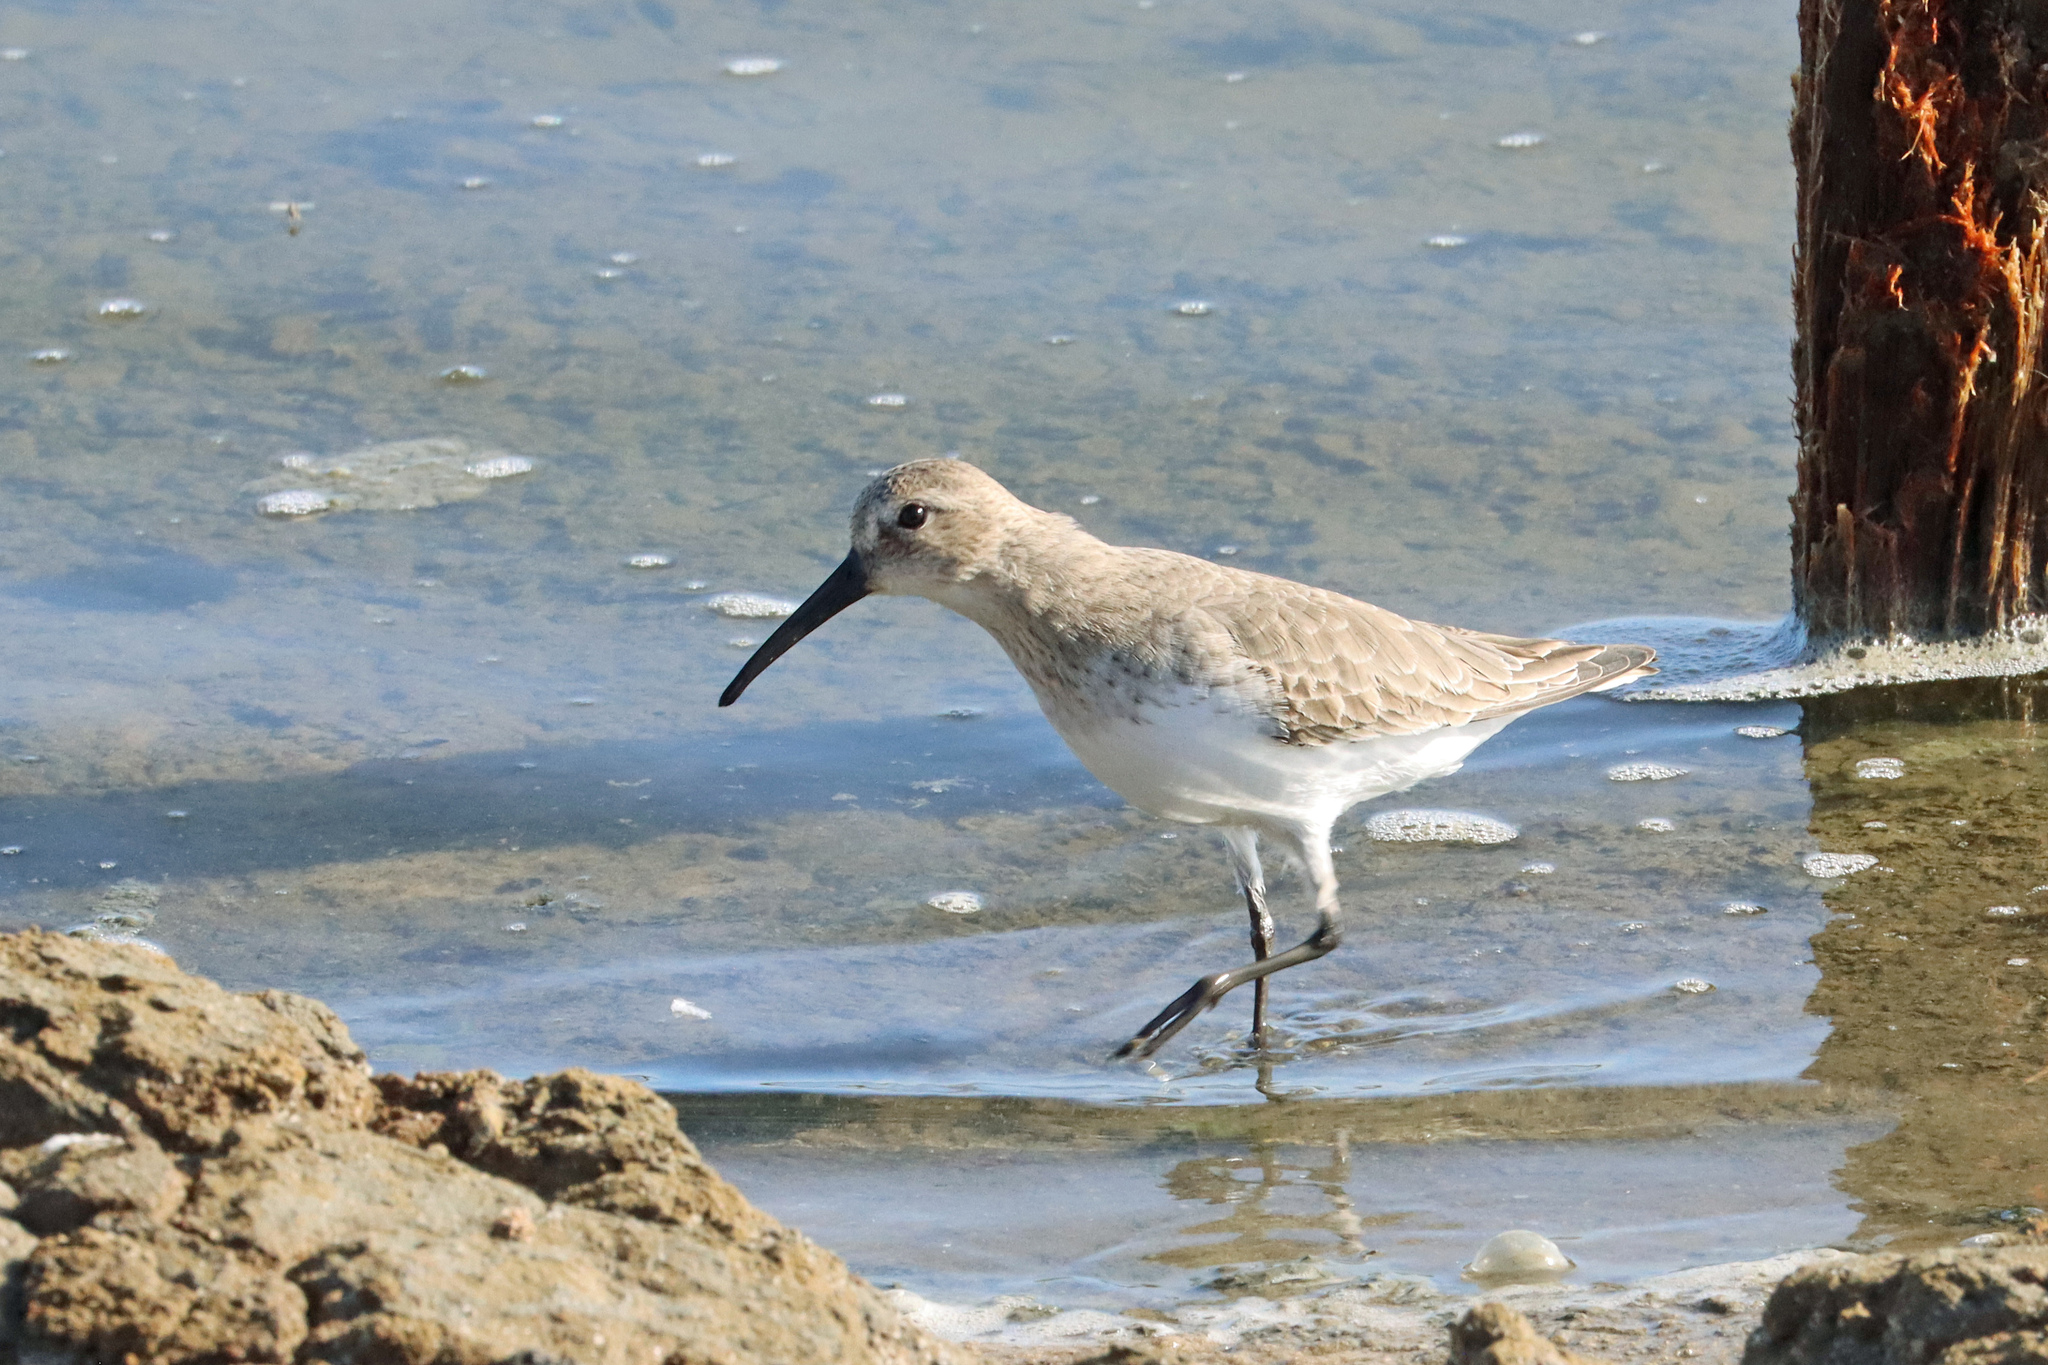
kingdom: Animalia
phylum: Chordata
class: Aves
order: Charadriiformes
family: Scolopacidae
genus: Calidris
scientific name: Calidris ferruginea
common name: Curlew sandpiper
